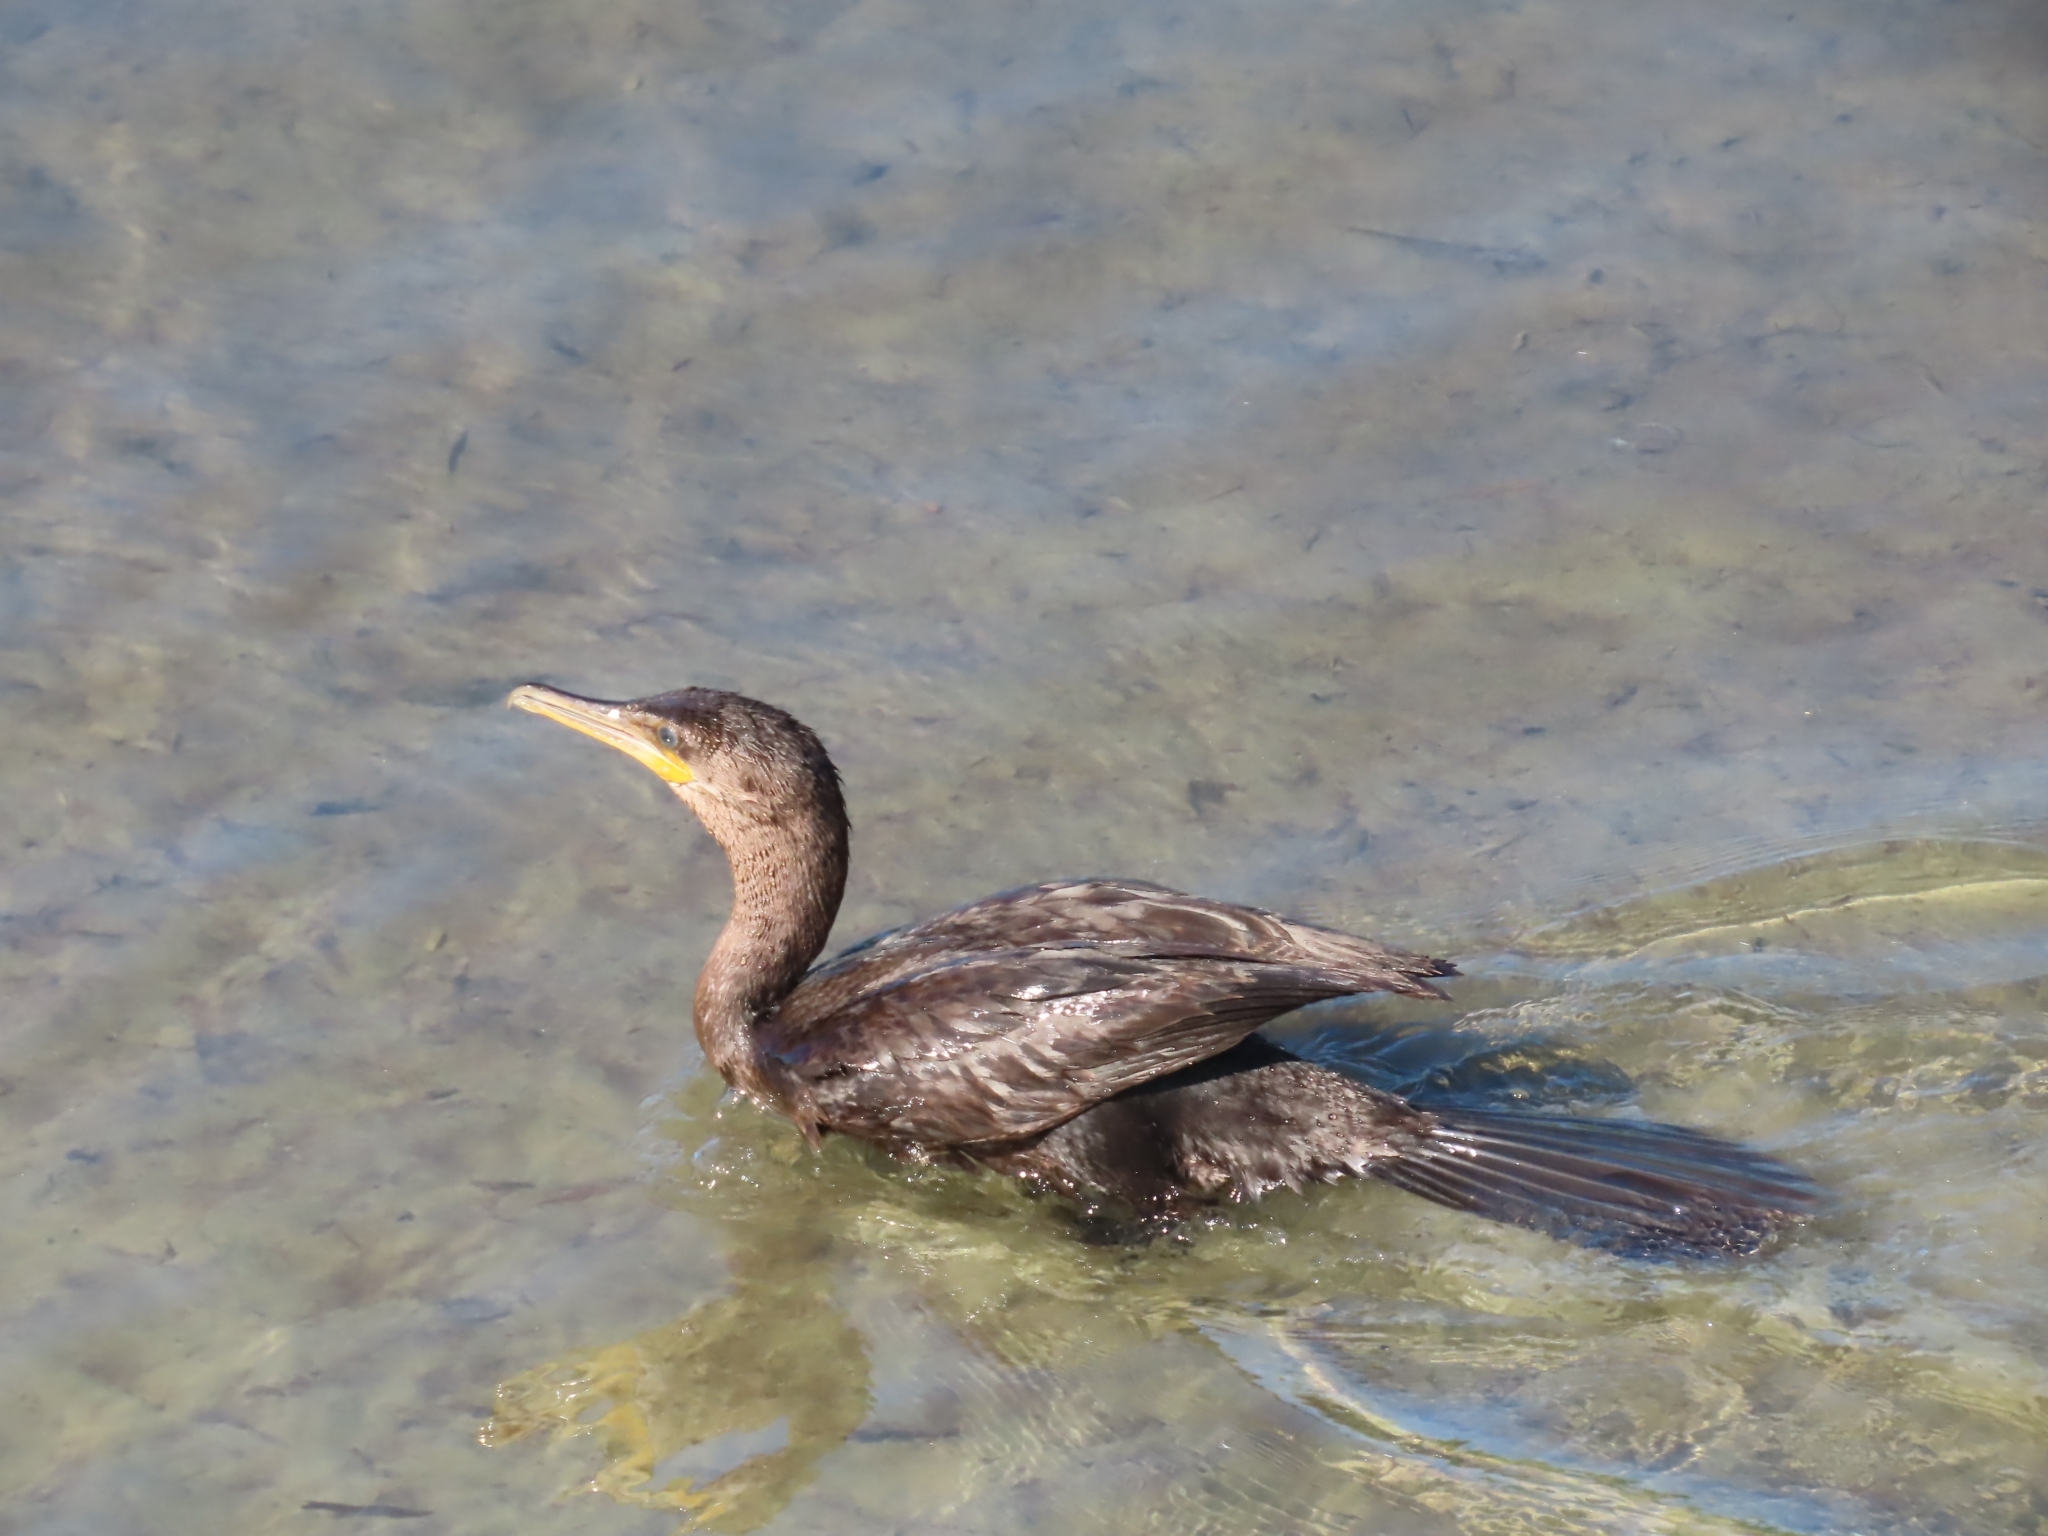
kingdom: Animalia
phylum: Chordata
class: Aves
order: Suliformes
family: Phalacrocoracidae
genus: Phalacrocorax
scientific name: Phalacrocorax brasilianus
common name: Neotropic cormorant
